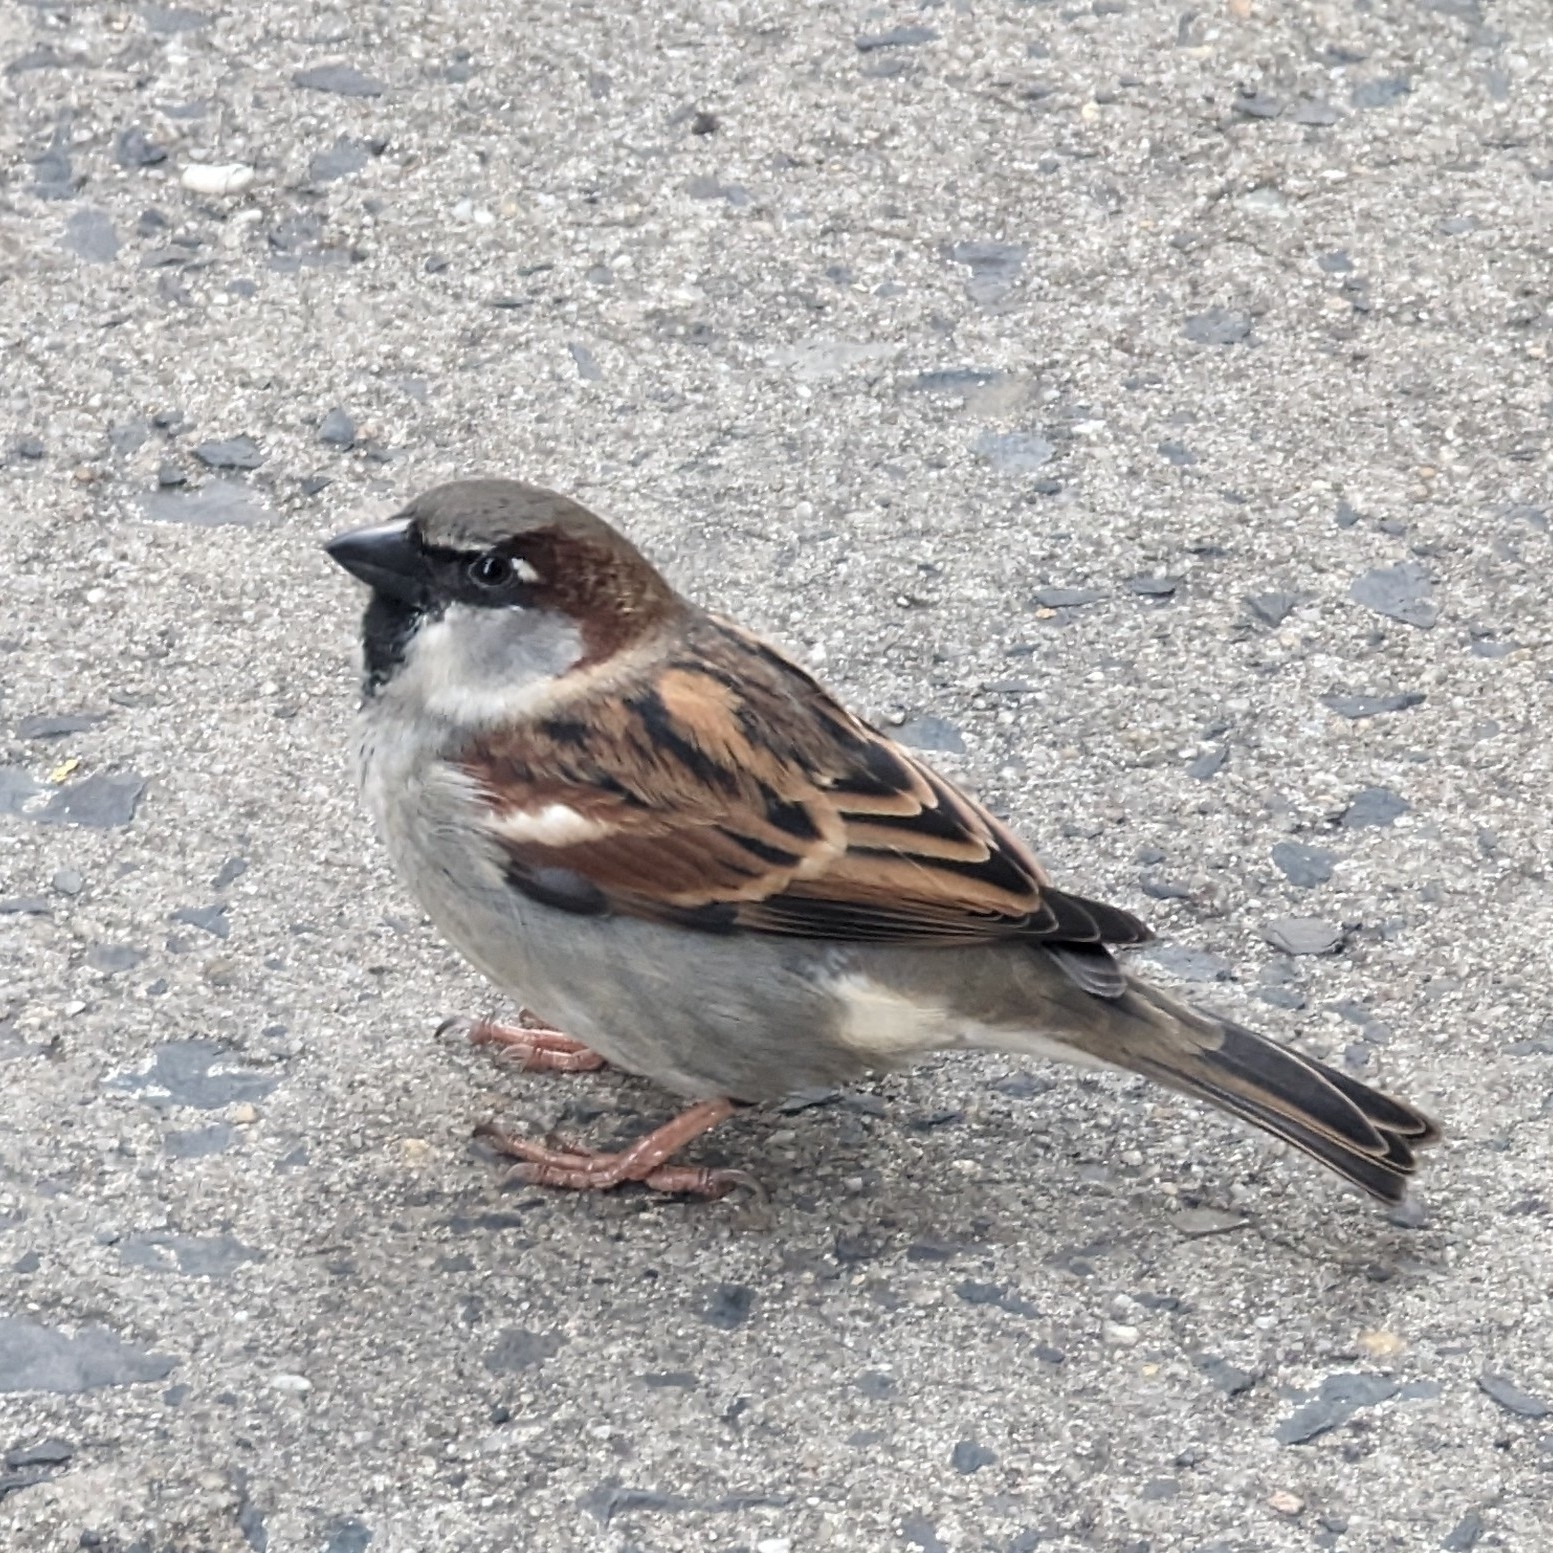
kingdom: Animalia
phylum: Chordata
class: Aves
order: Passeriformes
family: Passeridae
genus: Passer
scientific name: Passer domesticus
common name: House sparrow
